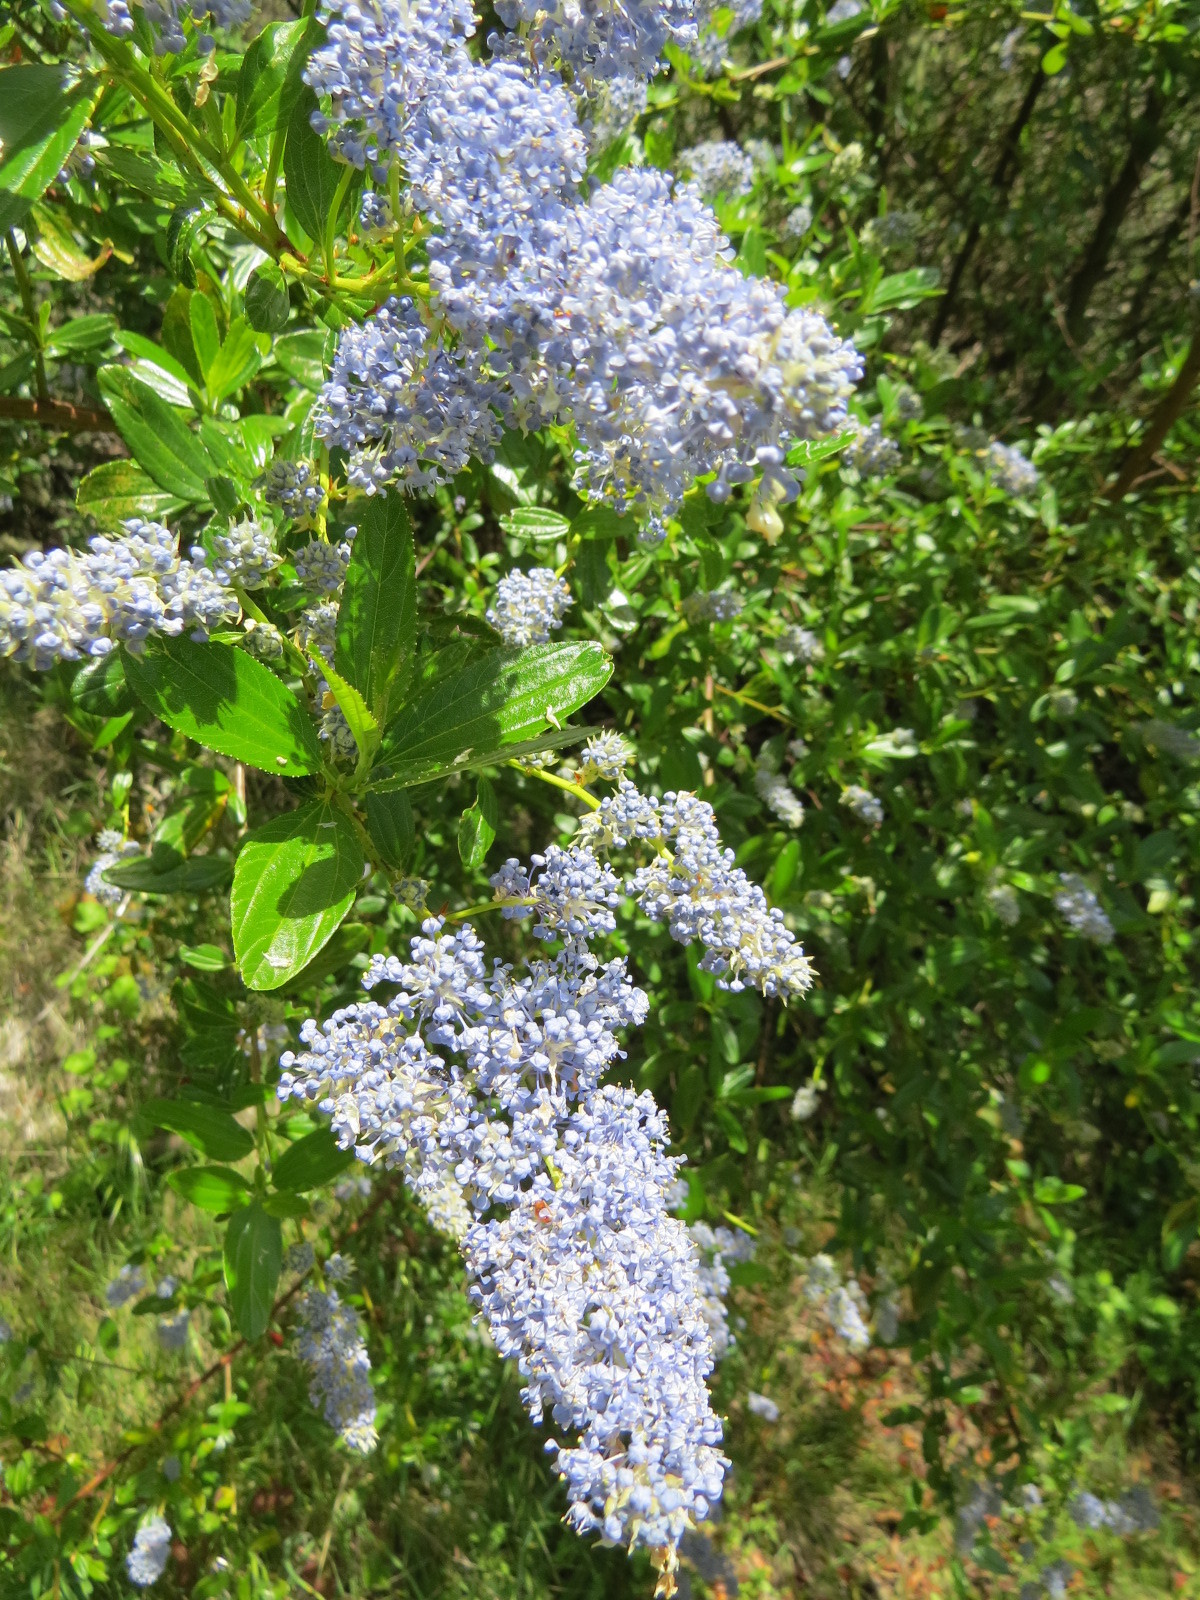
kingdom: Plantae
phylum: Tracheophyta
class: Magnoliopsida
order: Rosales
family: Rhamnaceae
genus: Ceanothus
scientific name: Ceanothus thyrsiflorus
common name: California-lilac
